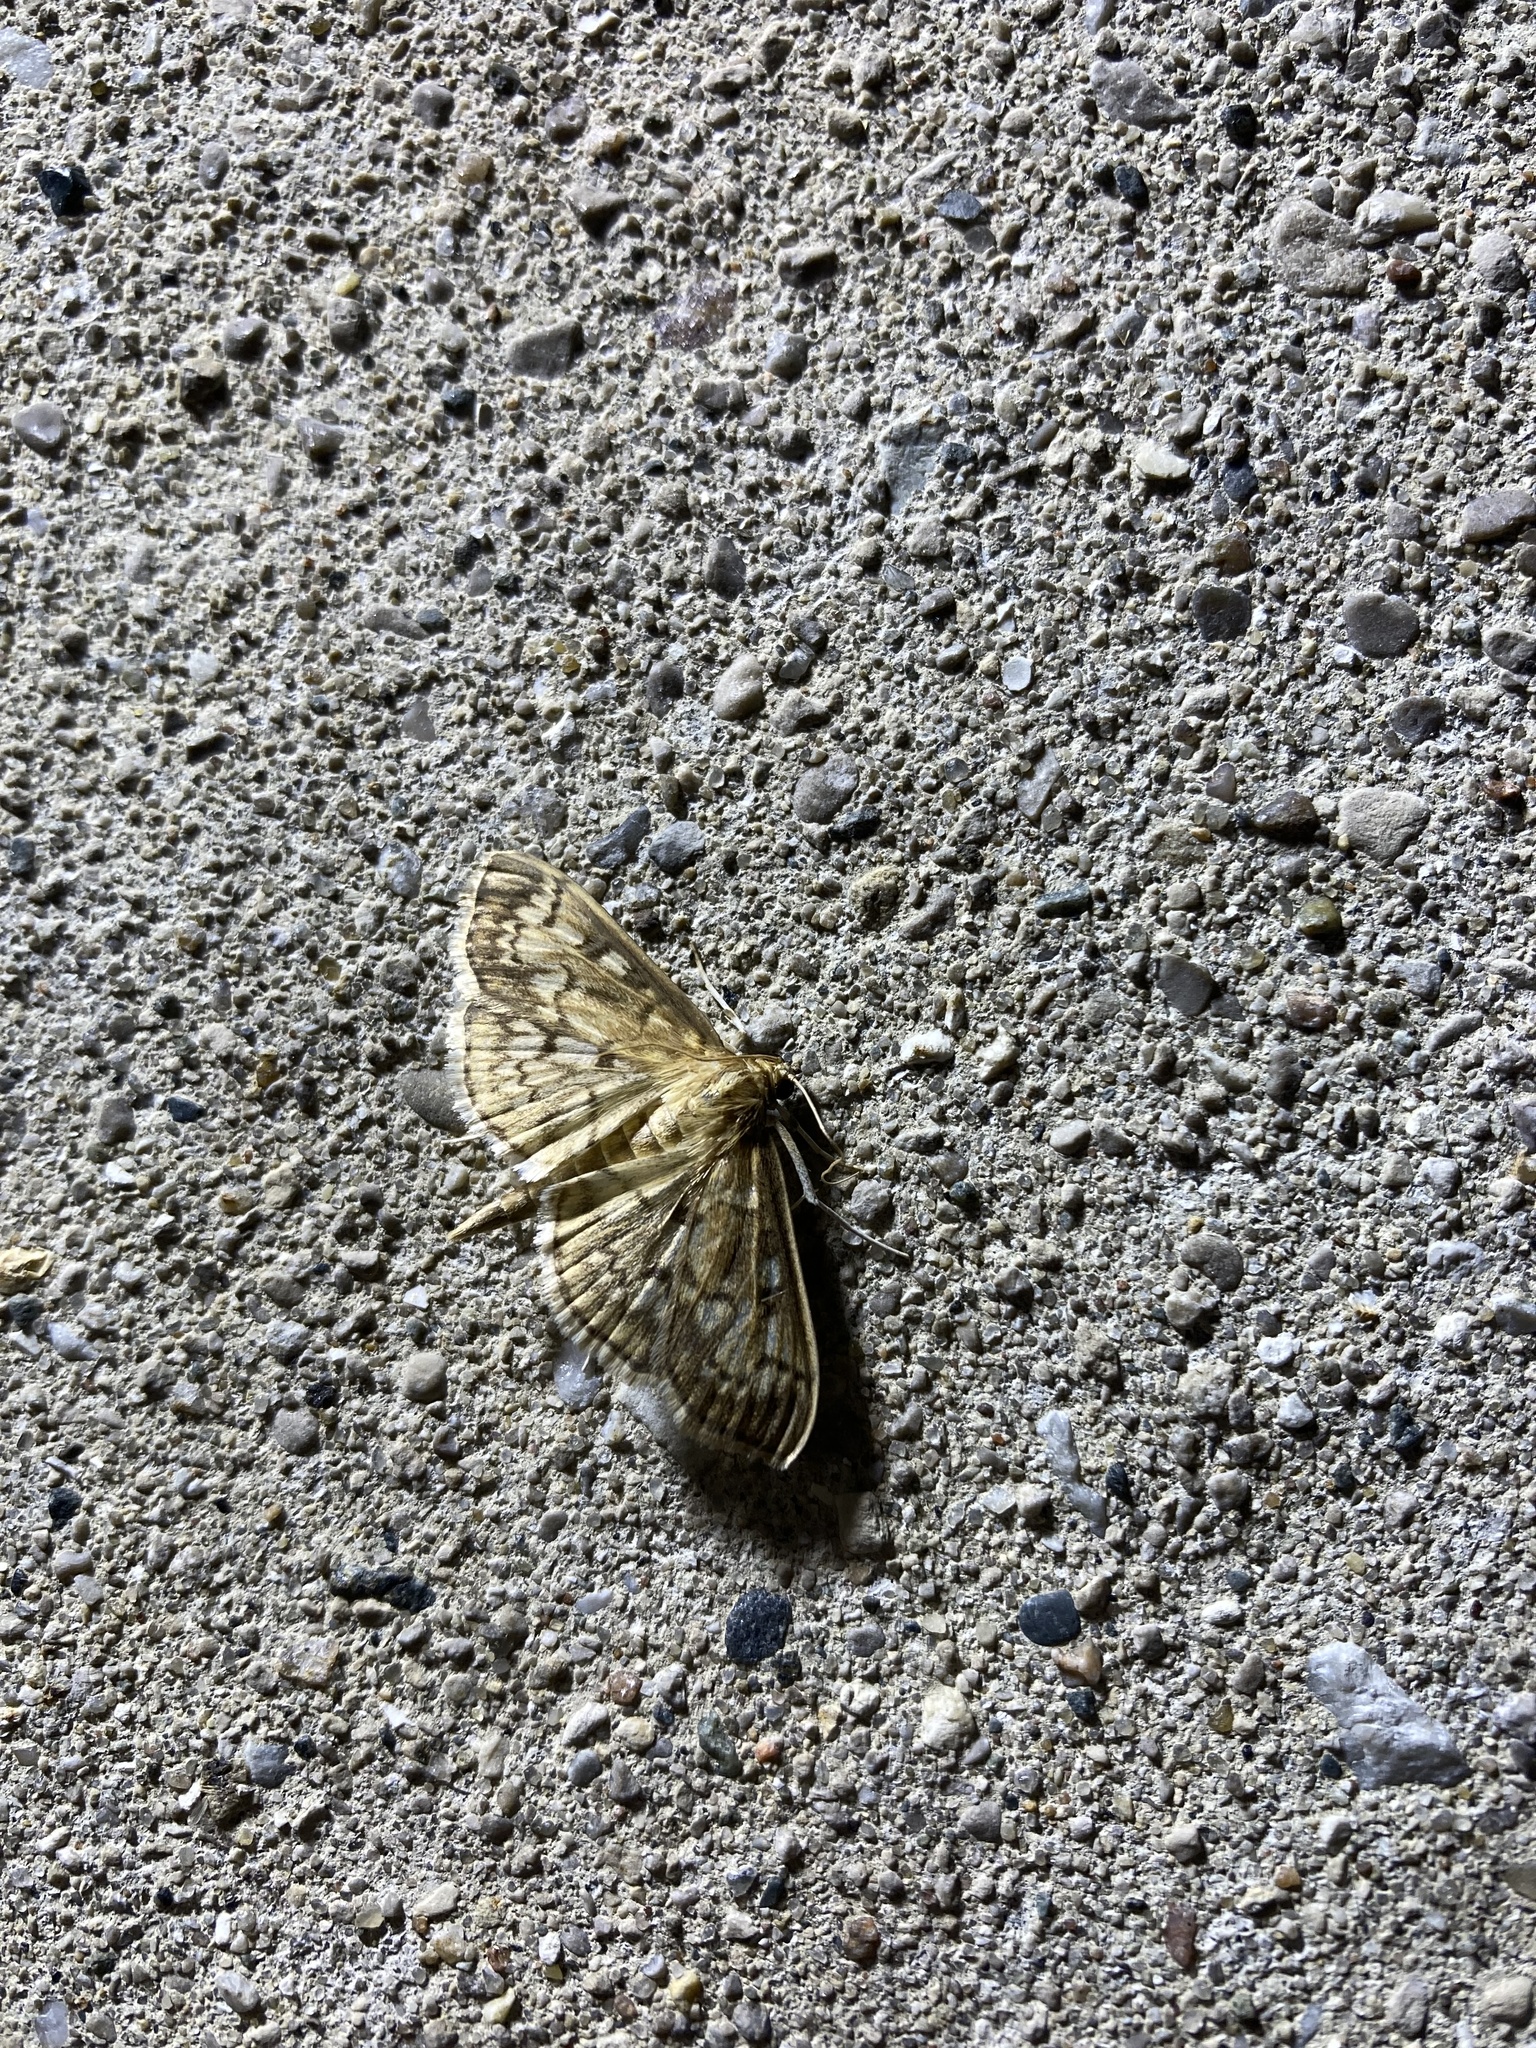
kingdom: Animalia
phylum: Arthropoda
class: Insecta
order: Lepidoptera
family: Crambidae
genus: Herpetogramma
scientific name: Herpetogramma thestealis
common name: Zigzag herpetogramma moth
